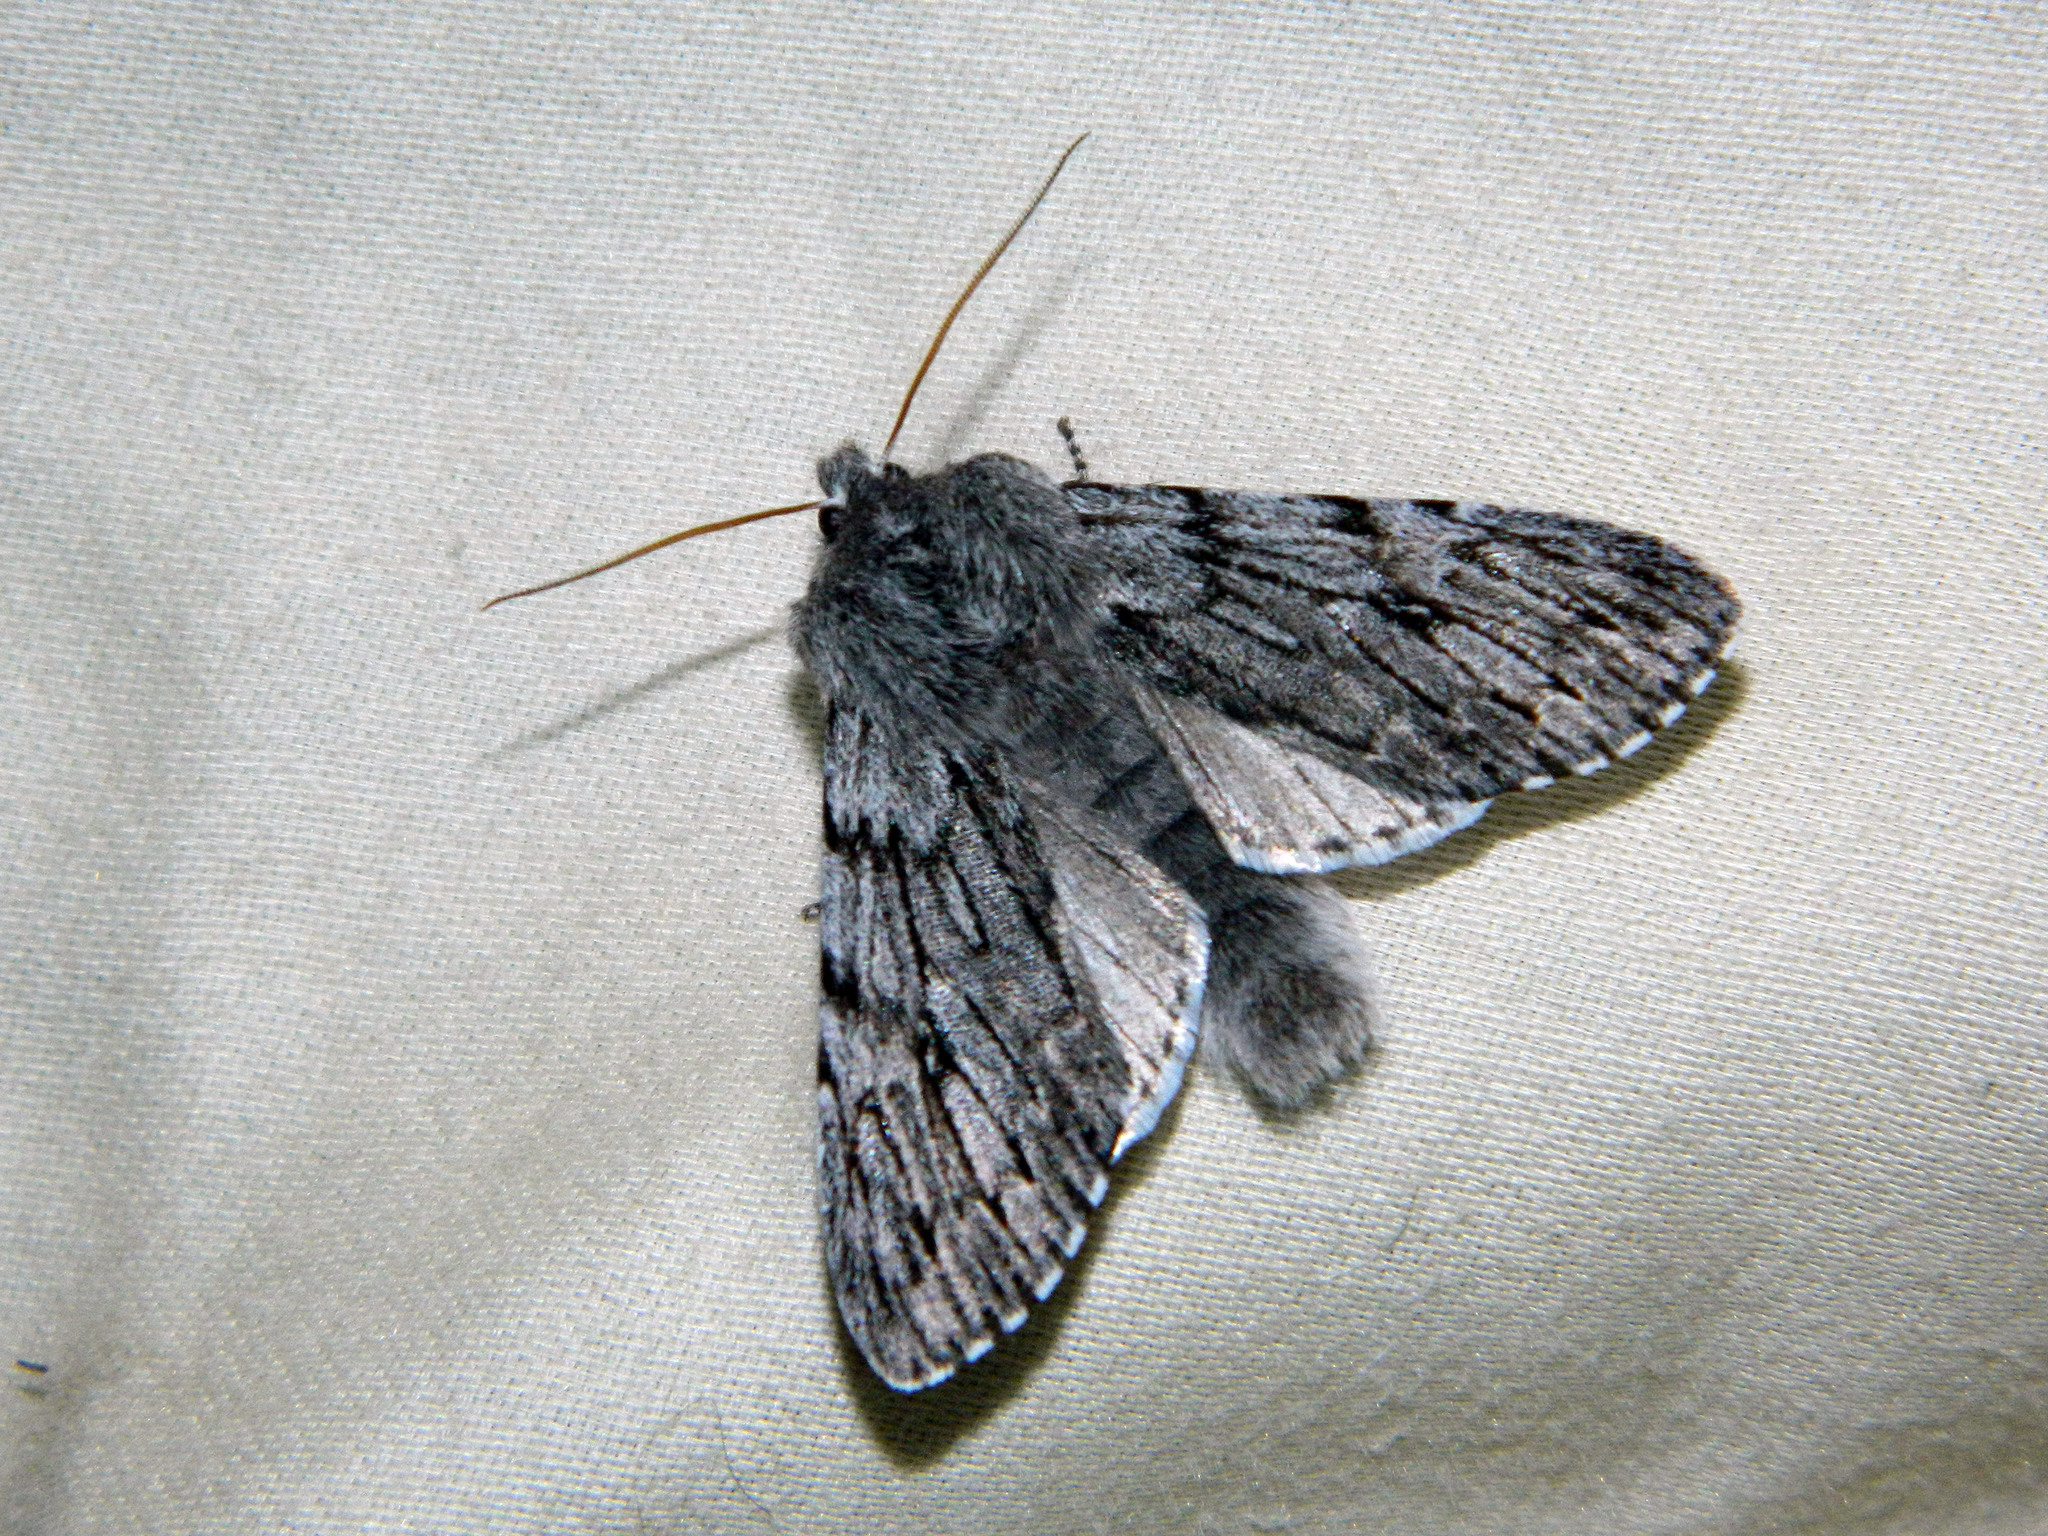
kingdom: Animalia
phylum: Arthropoda
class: Insecta
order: Lepidoptera
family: Noctuidae
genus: Brachionycha
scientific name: Brachionycha borealis
